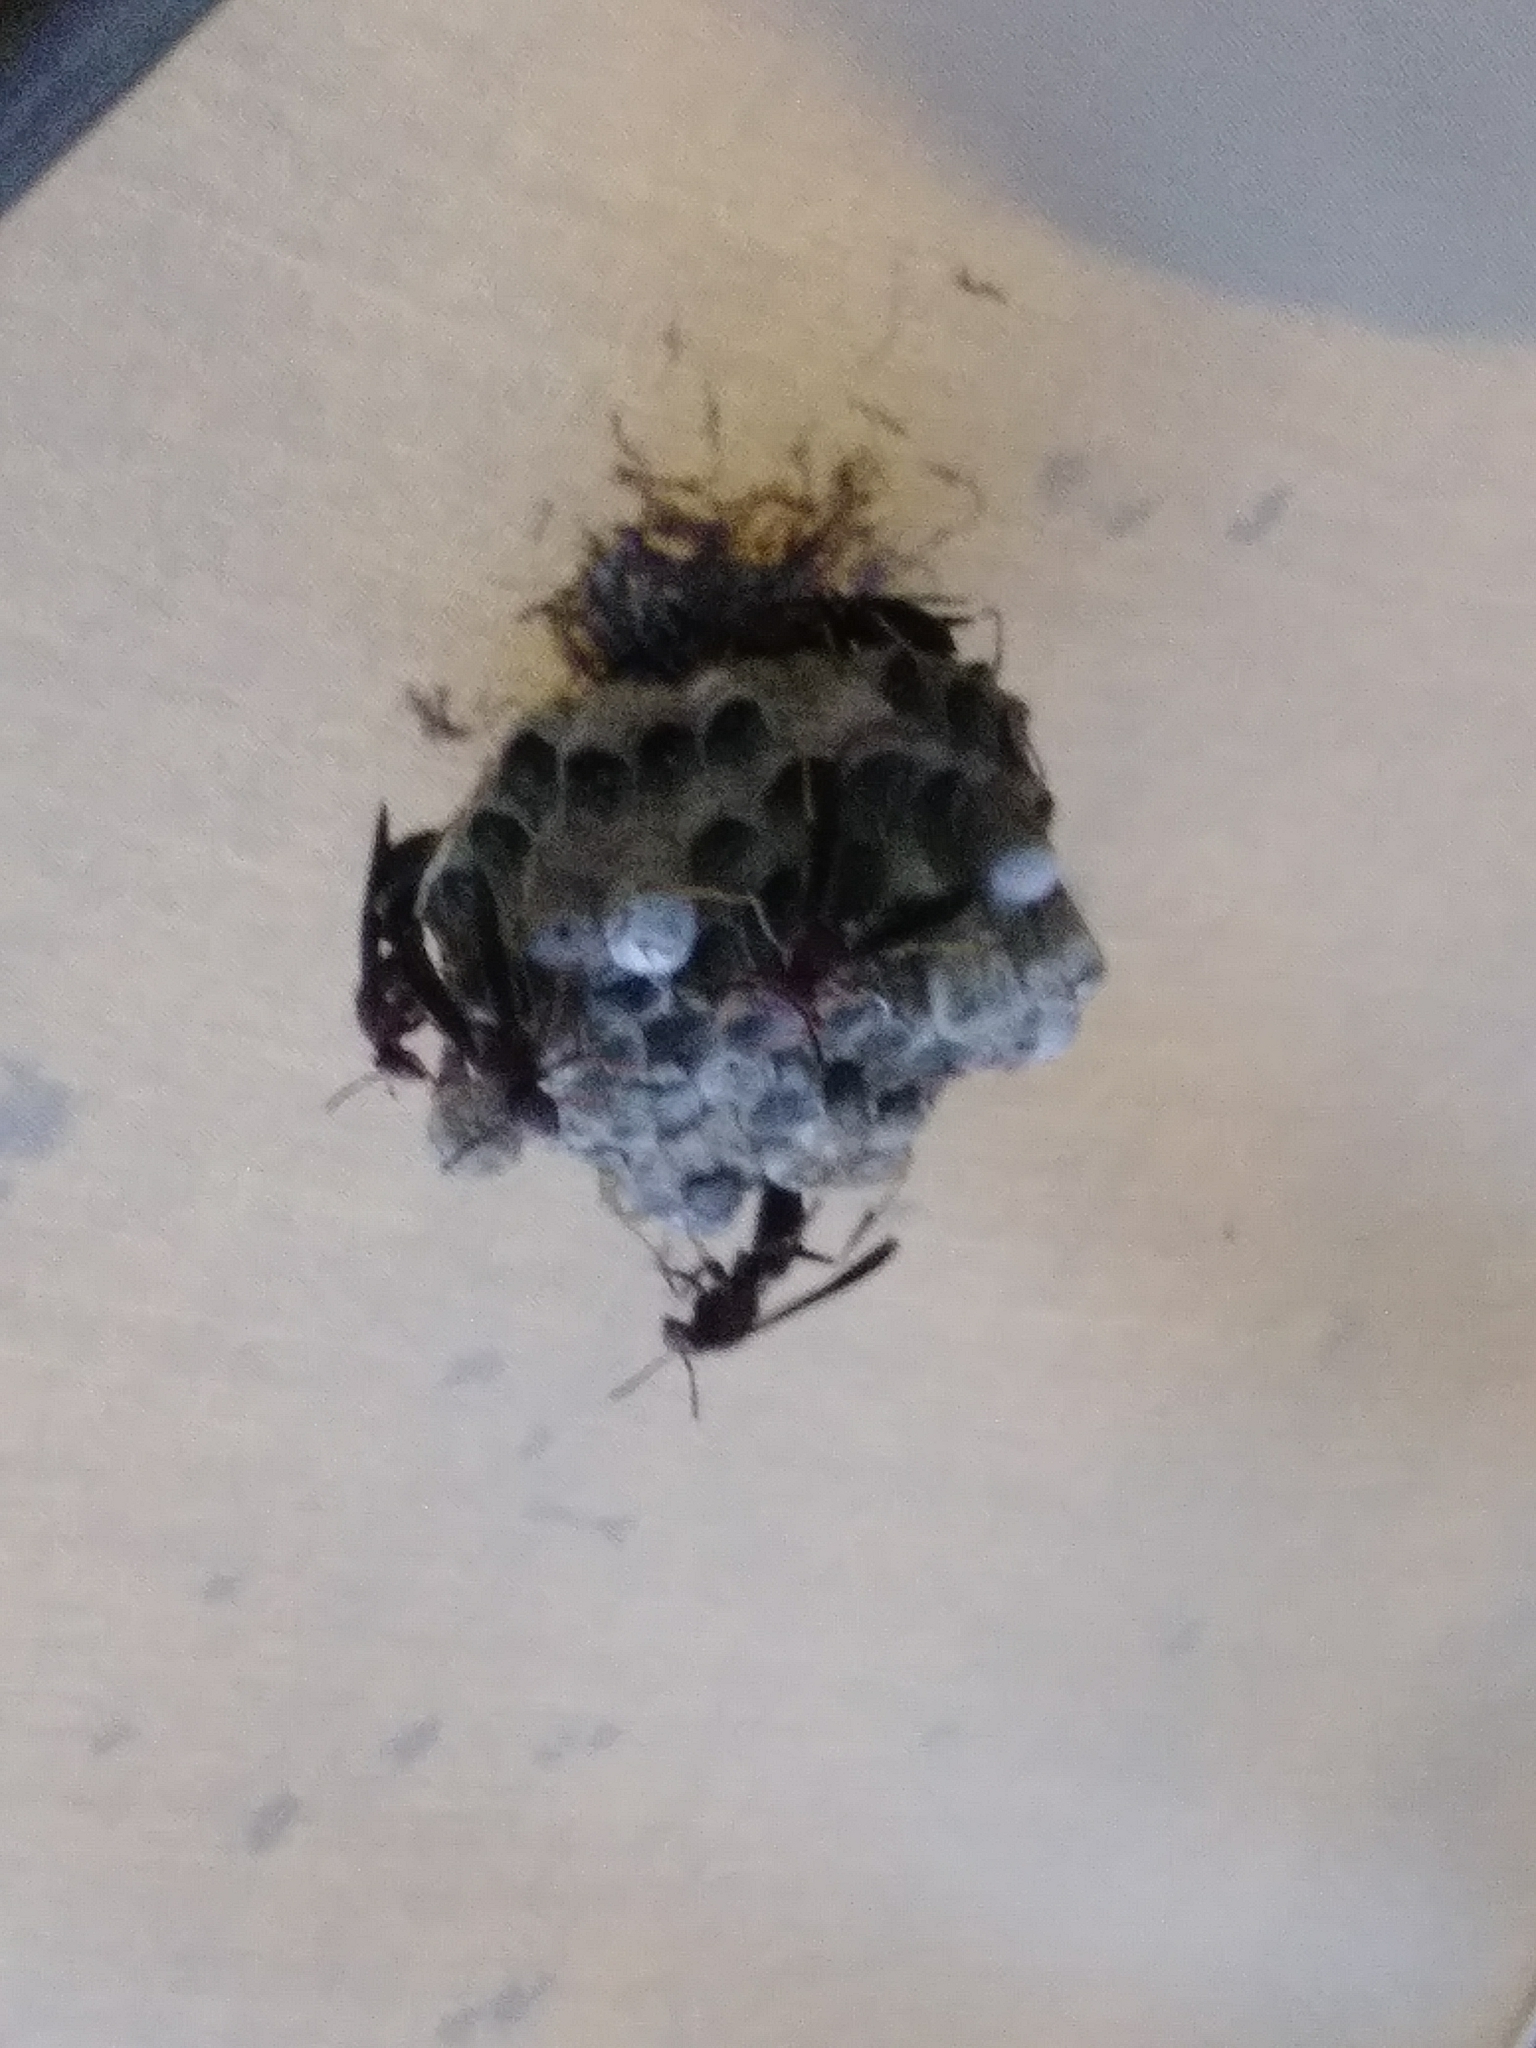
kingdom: Animalia
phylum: Arthropoda
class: Insecta
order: Hymenoptera
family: Eumenidae
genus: Polistes
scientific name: Polistes metricus
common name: Metric paper wasp
